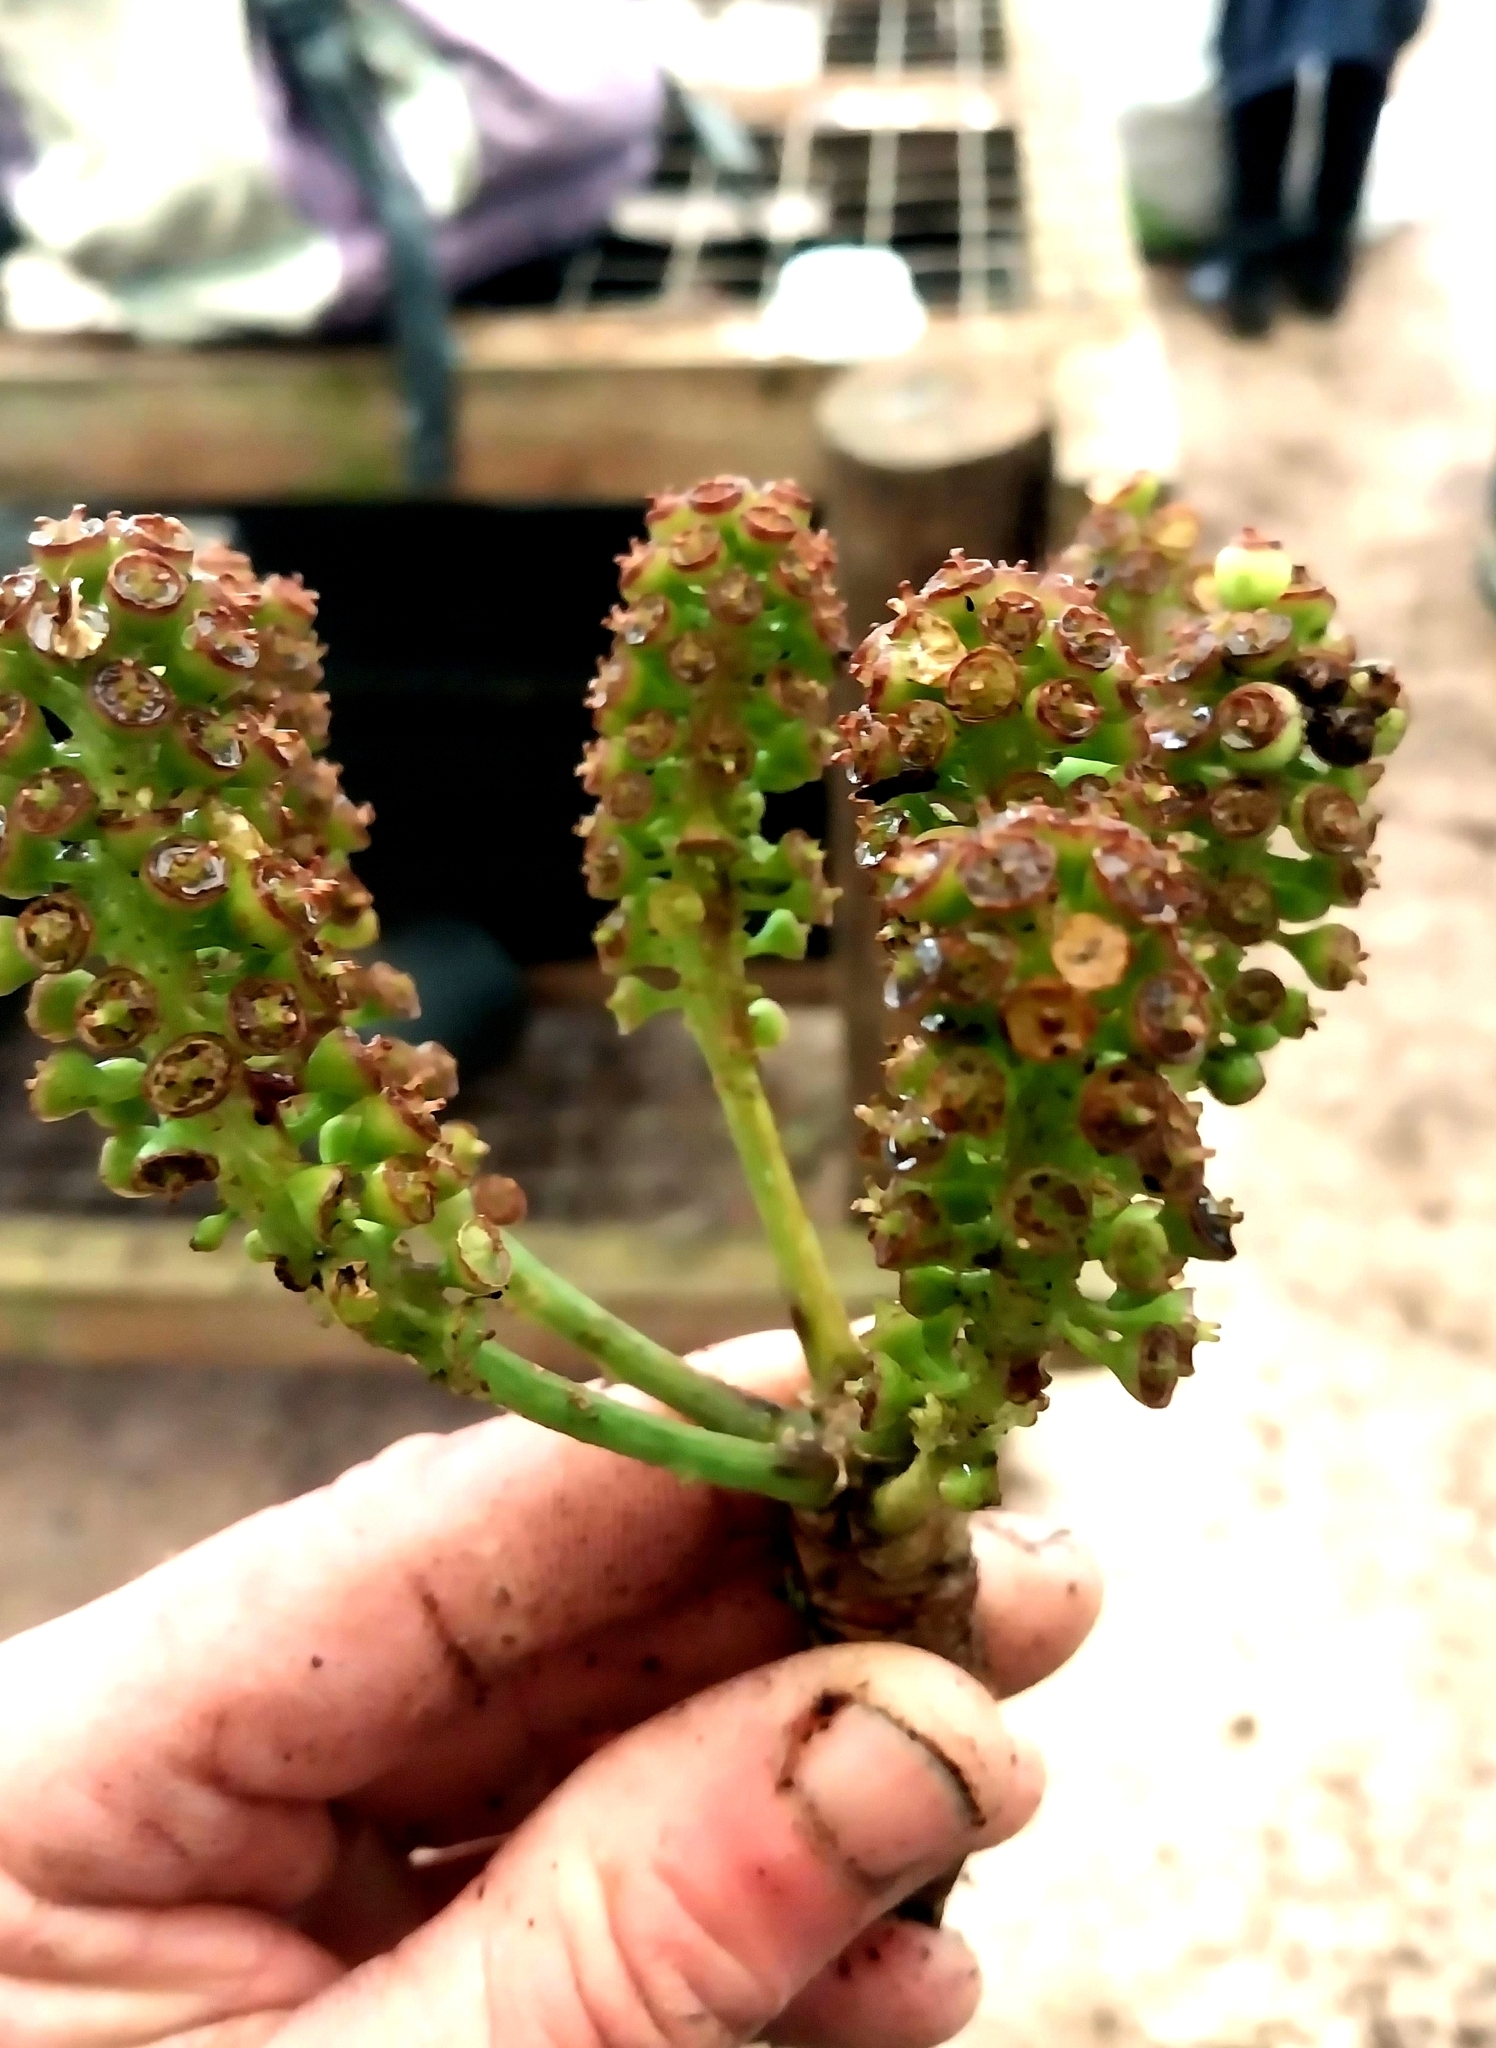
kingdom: Plantae
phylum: Tracheophyta
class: Magnoliopsida
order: Apiales
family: Araliaceae
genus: Cussonia
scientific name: Cussonia thyrsiflora
